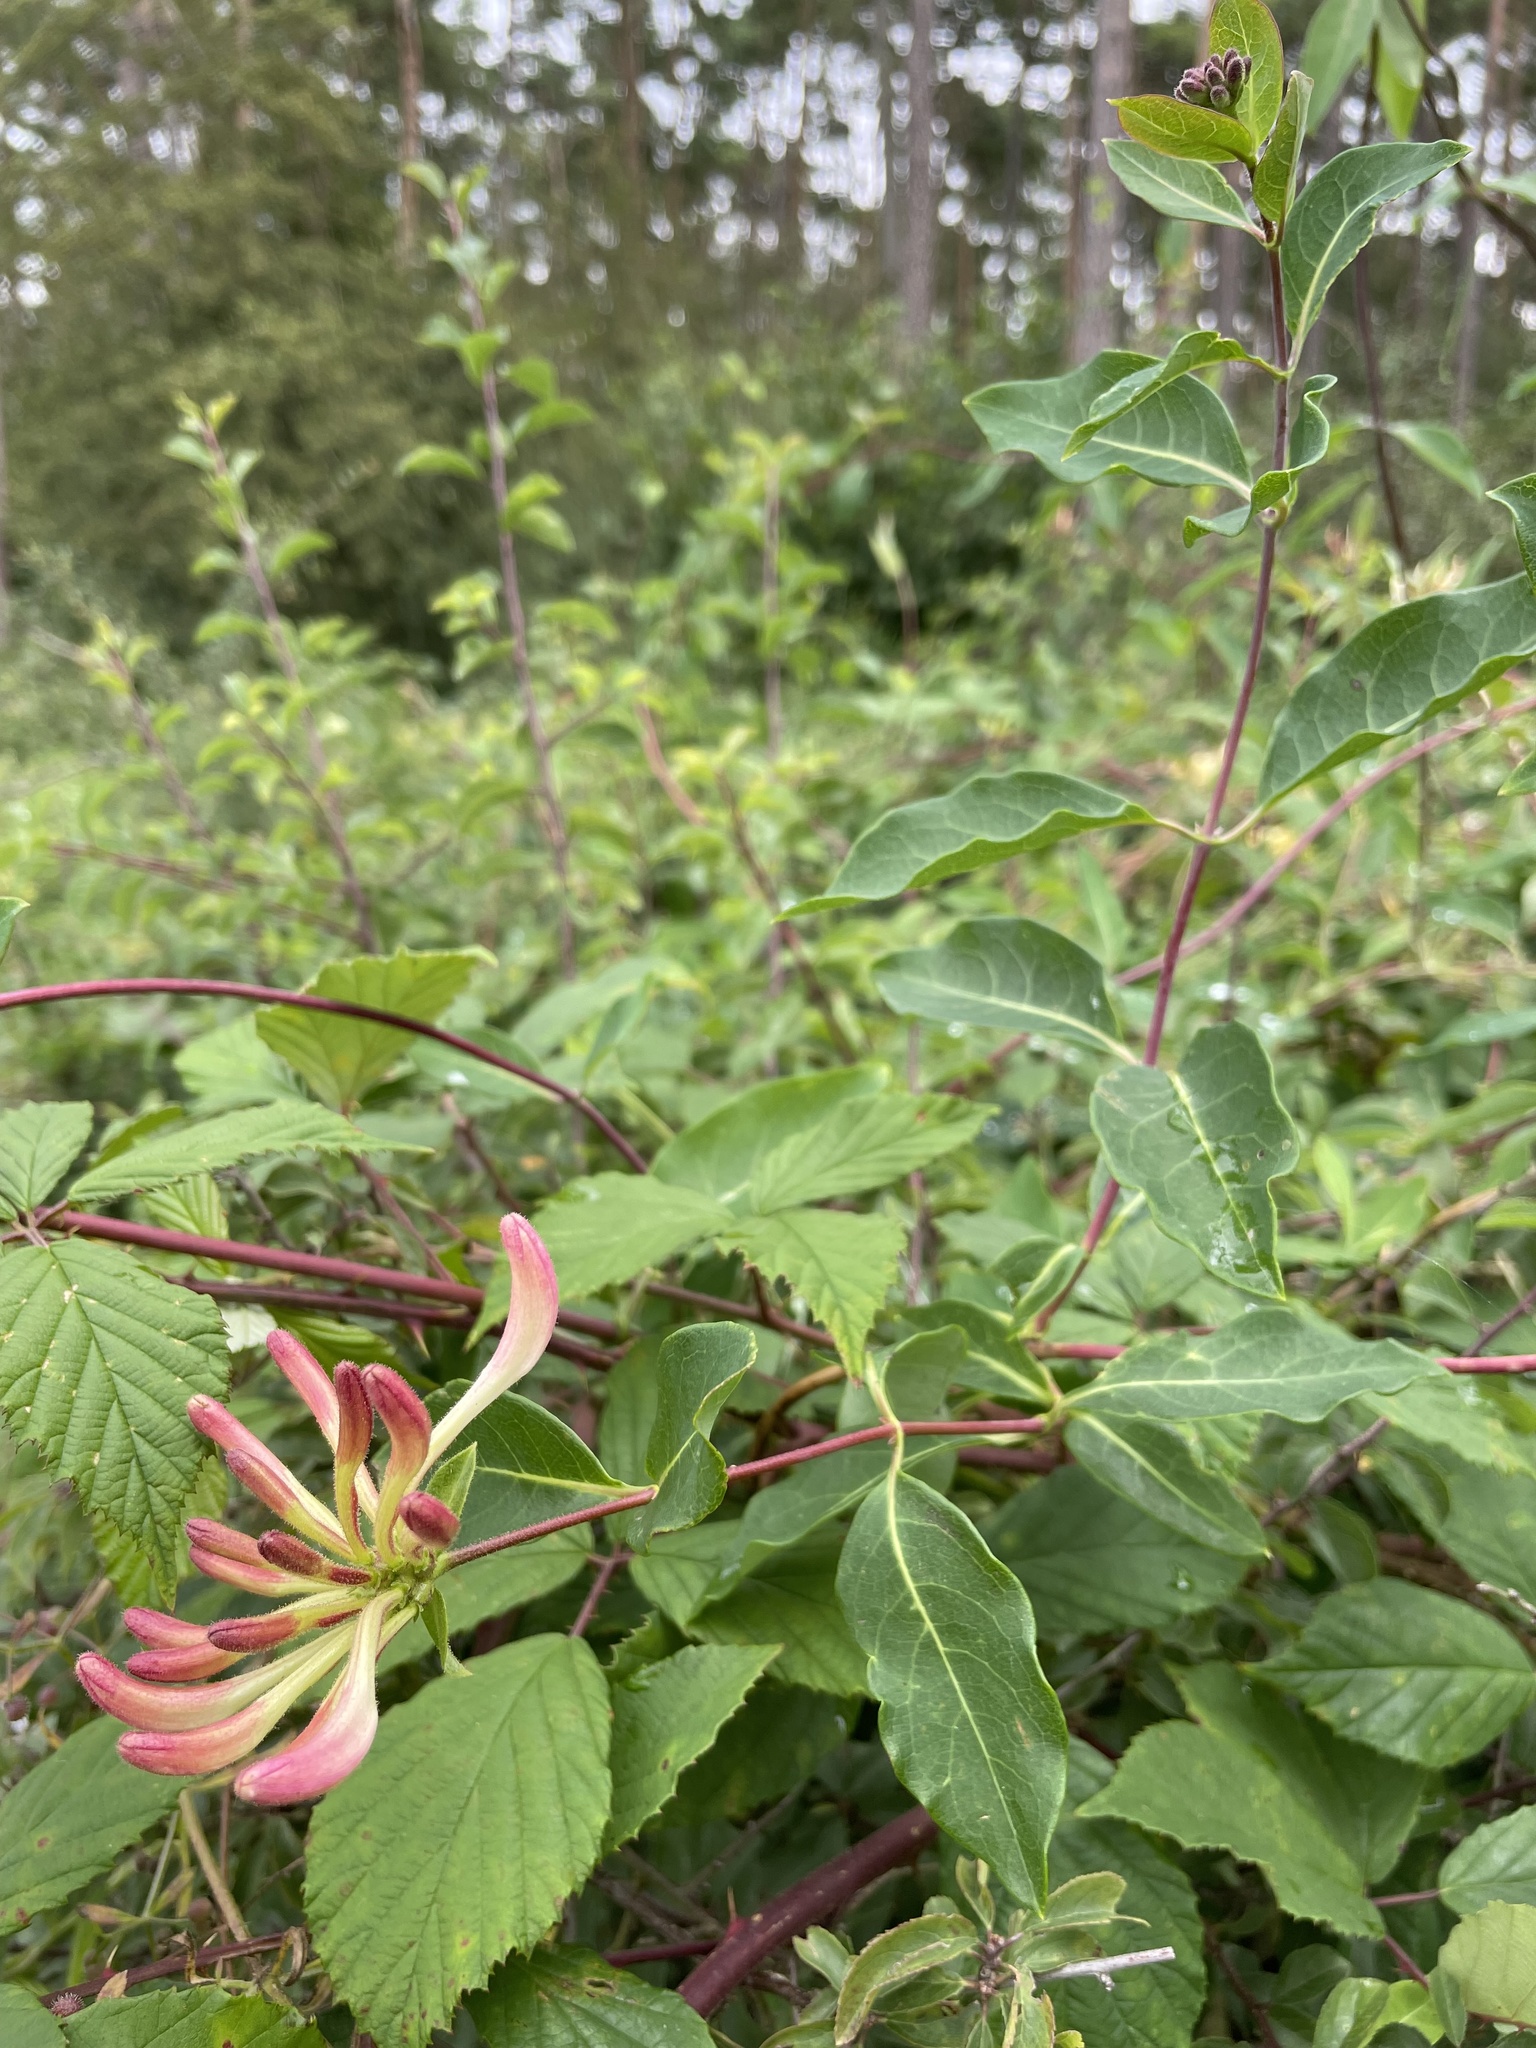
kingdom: Plantae
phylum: Tracheophyta
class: Magnoliopsida
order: Dipsacales
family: Caprifoliaceae
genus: Lonicera
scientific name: Lonicera periclymenum
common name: European honeysuckle
